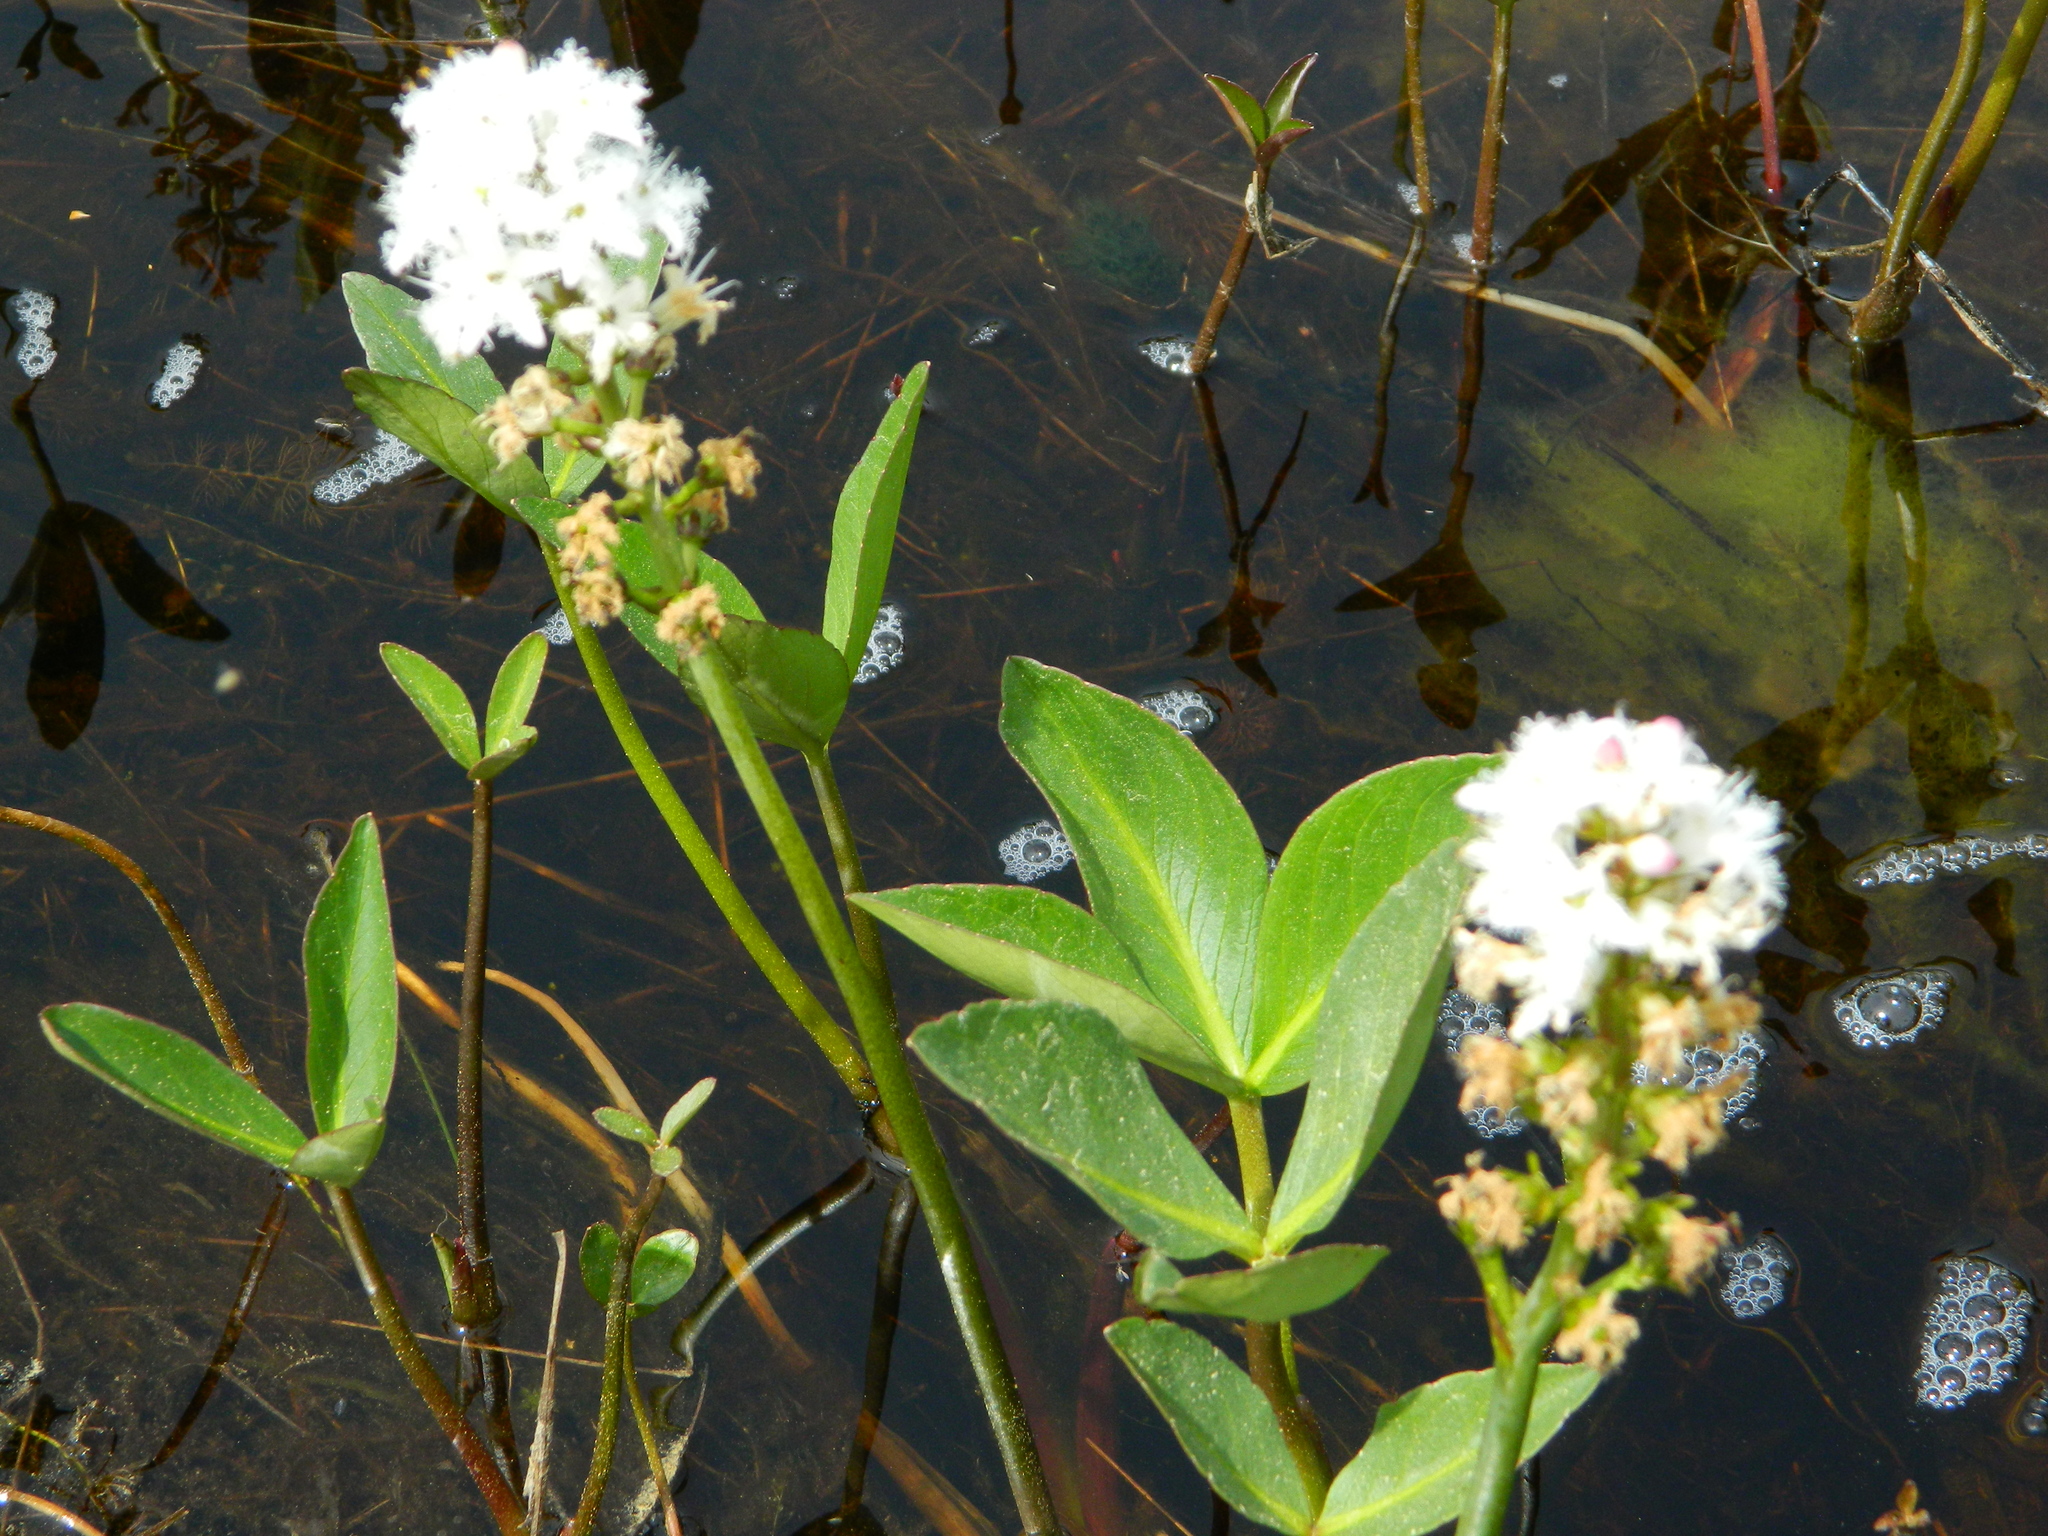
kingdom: Plantae
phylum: Tracheophyta
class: Magnoliopsida
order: Asterales
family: Menyanthaceae
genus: Menyanthes
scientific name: Menyanthes trifoliata
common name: Bogbean
